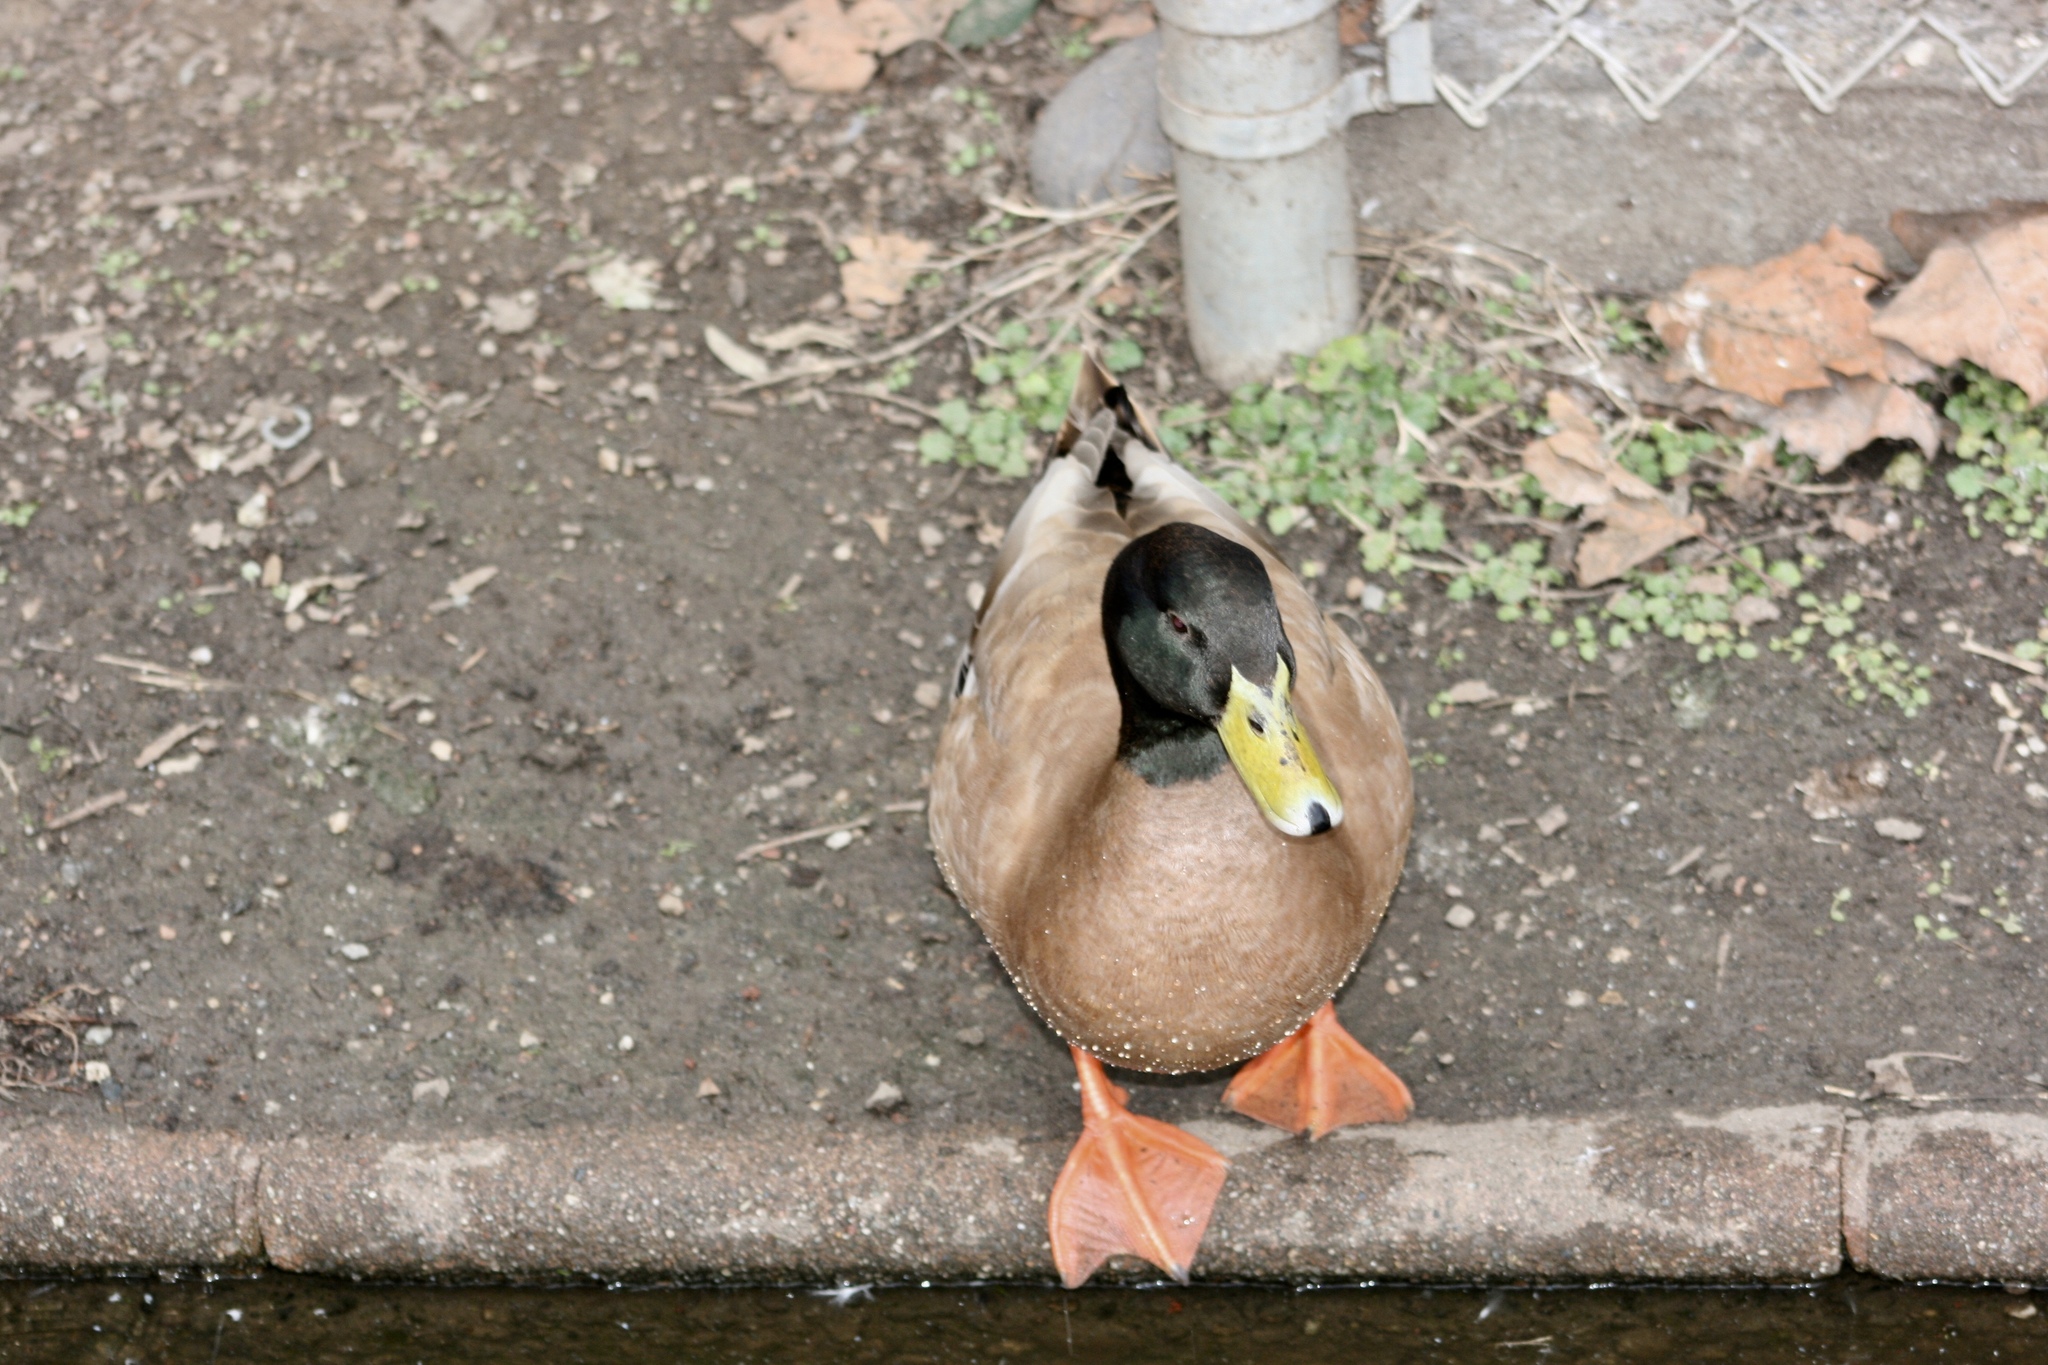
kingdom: Animalia
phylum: Chordata
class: Aves
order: Anseriformes
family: Anatidae
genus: Anas
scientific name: Anas platyrhynchos
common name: Mallard
